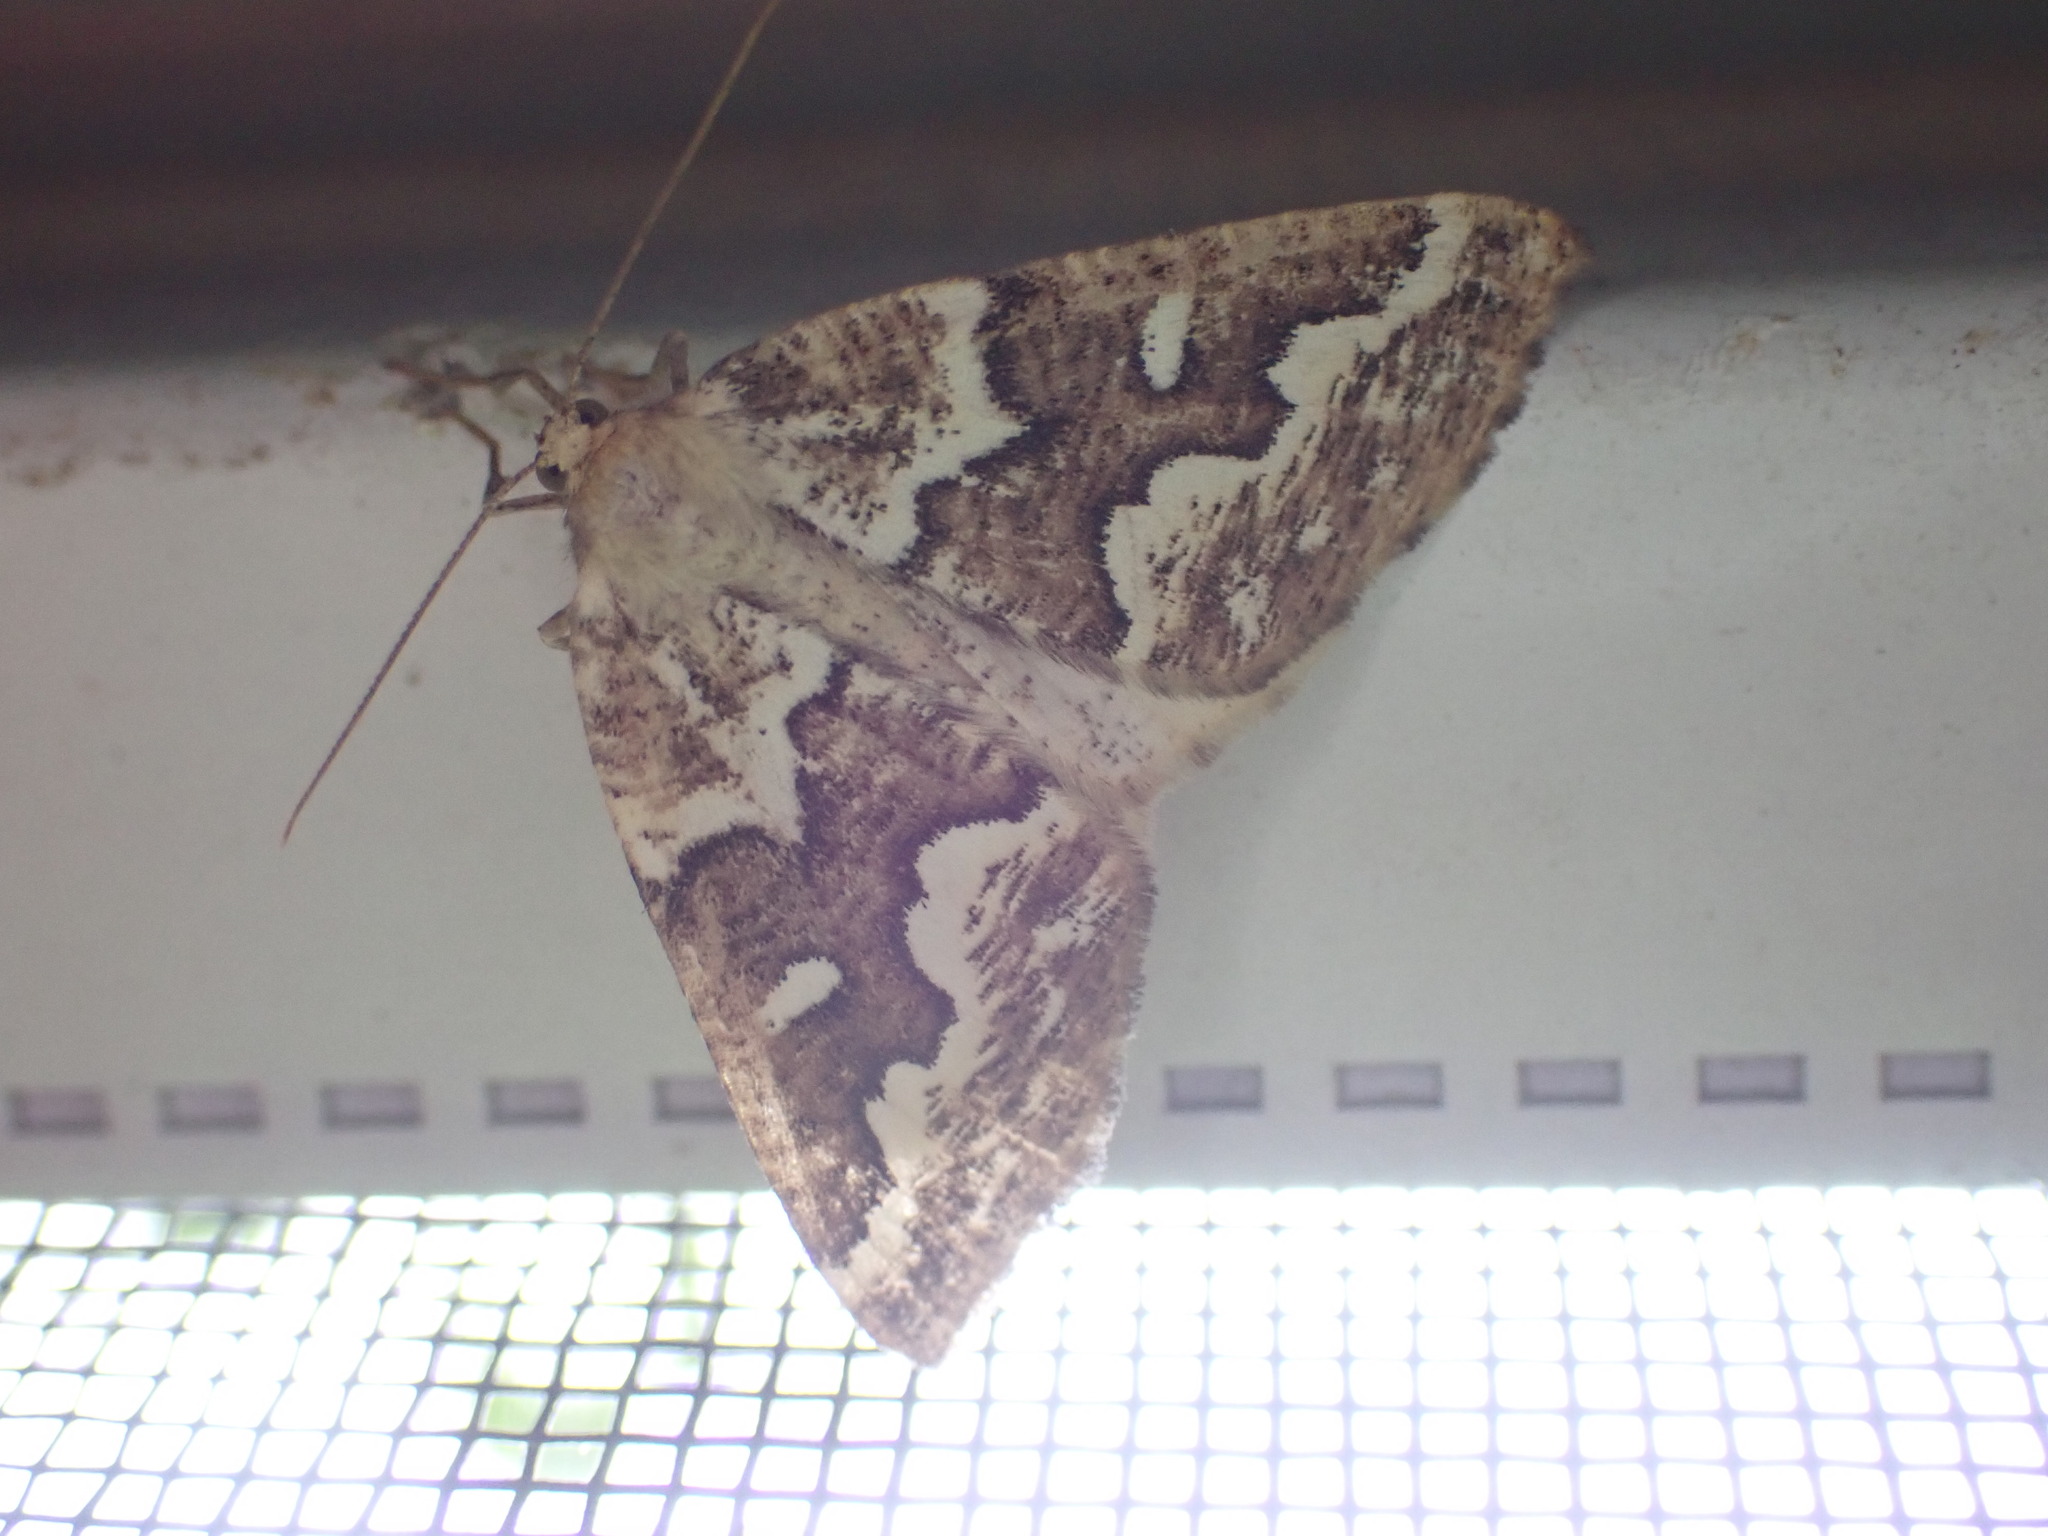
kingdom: Animalia
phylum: Arthropoda
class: Insecta
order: Lepidoptera
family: Geometridae
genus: Caripeta
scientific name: Caripeta divisata
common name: Gray spruce looper
